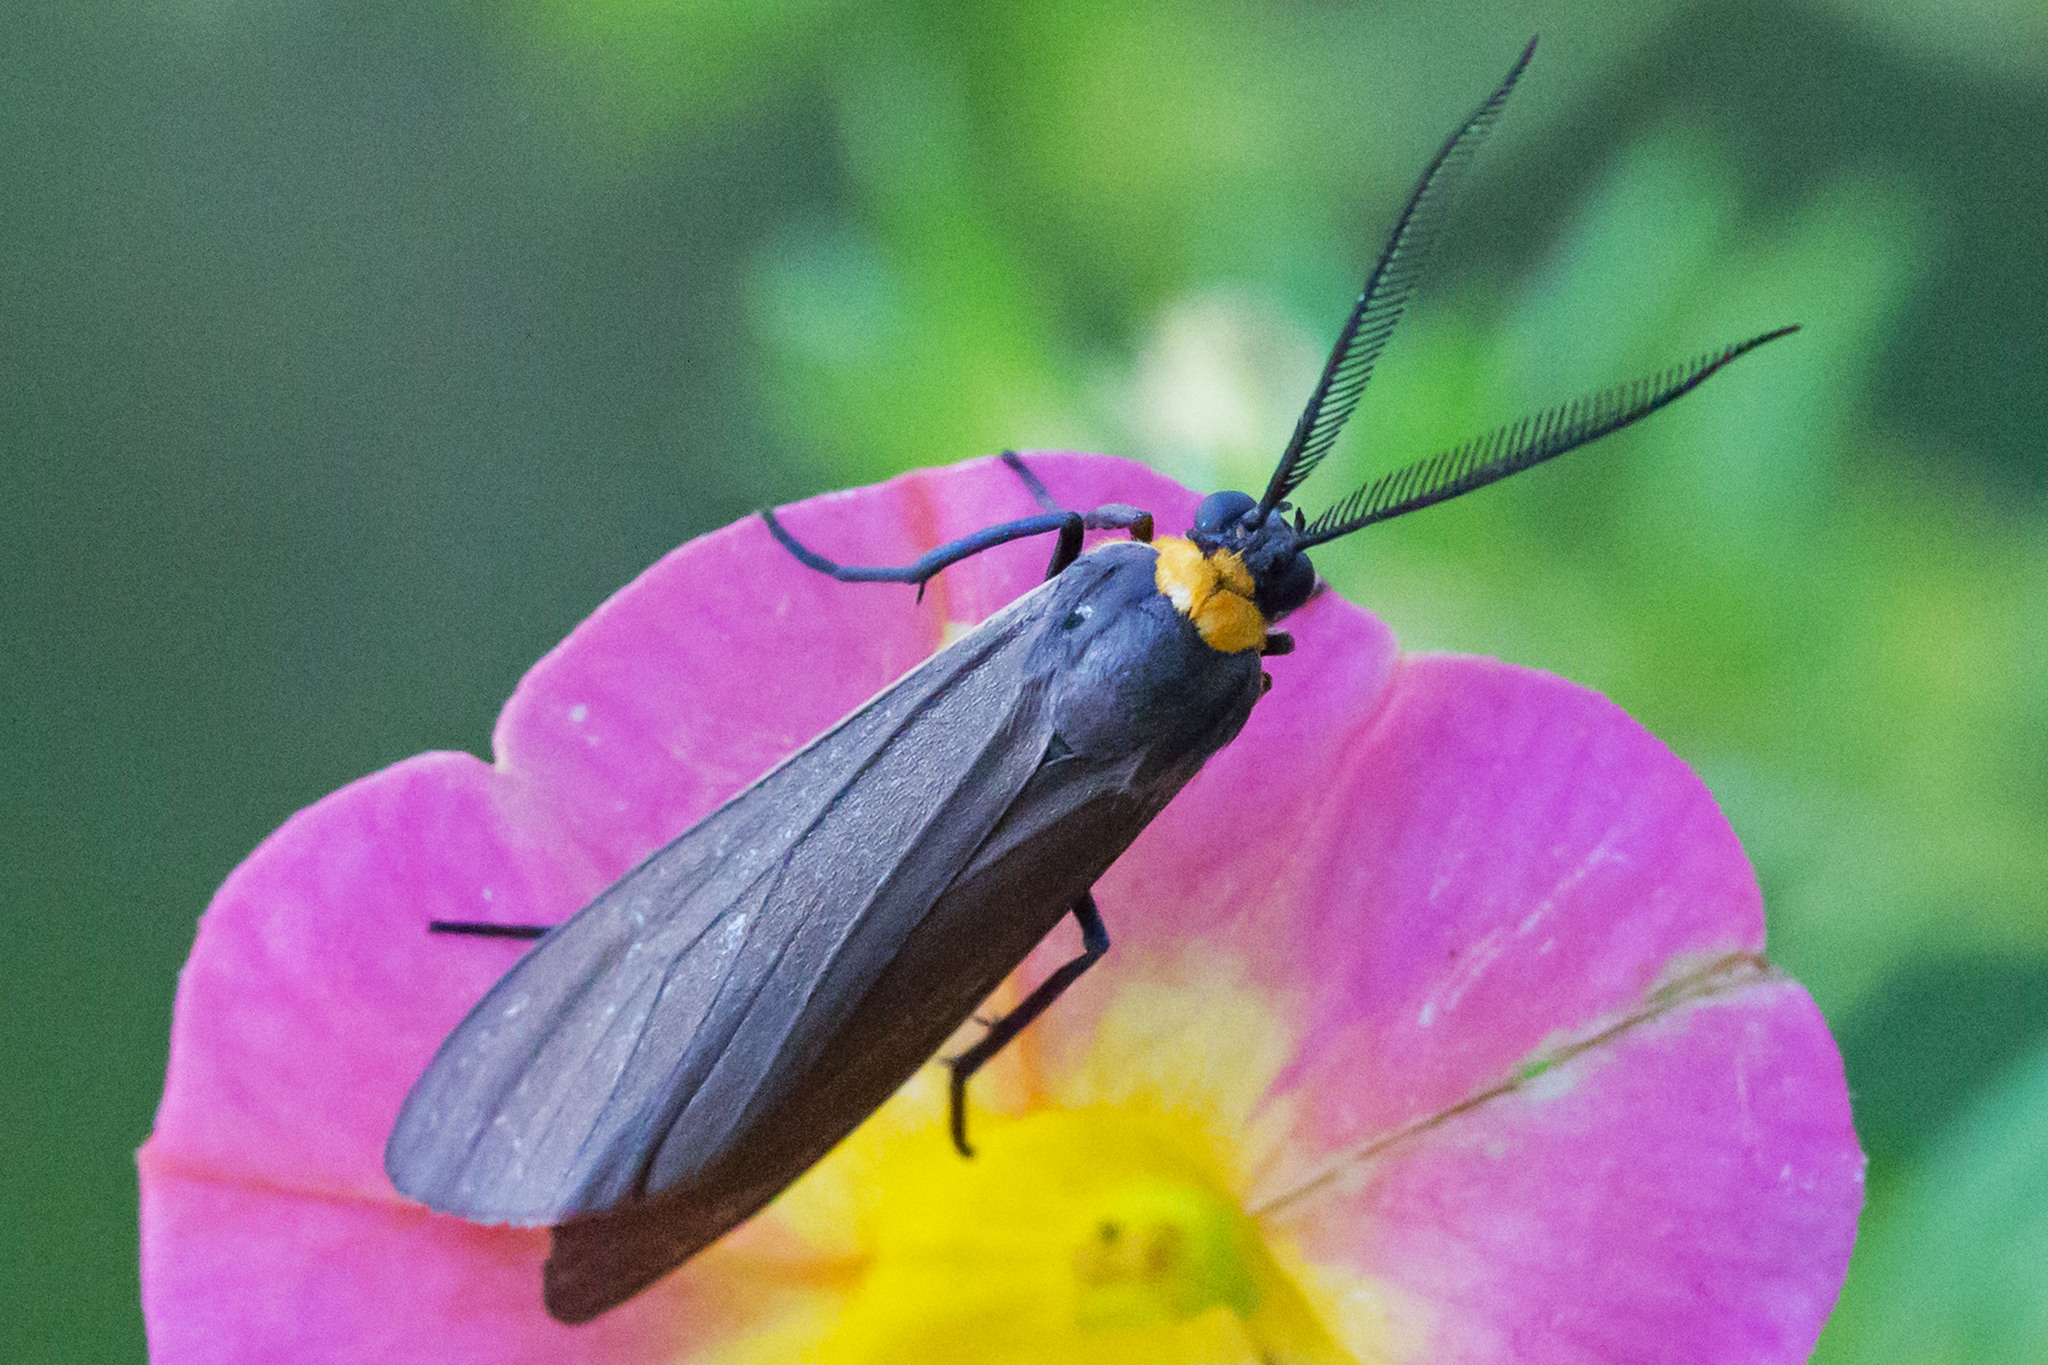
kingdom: Animalia
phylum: Arthropoda
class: Insecta
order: Lepidoptera
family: Erebidae
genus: Cisseps
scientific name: Cisseps fulvicollis
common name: Yellow-collared scape moth
